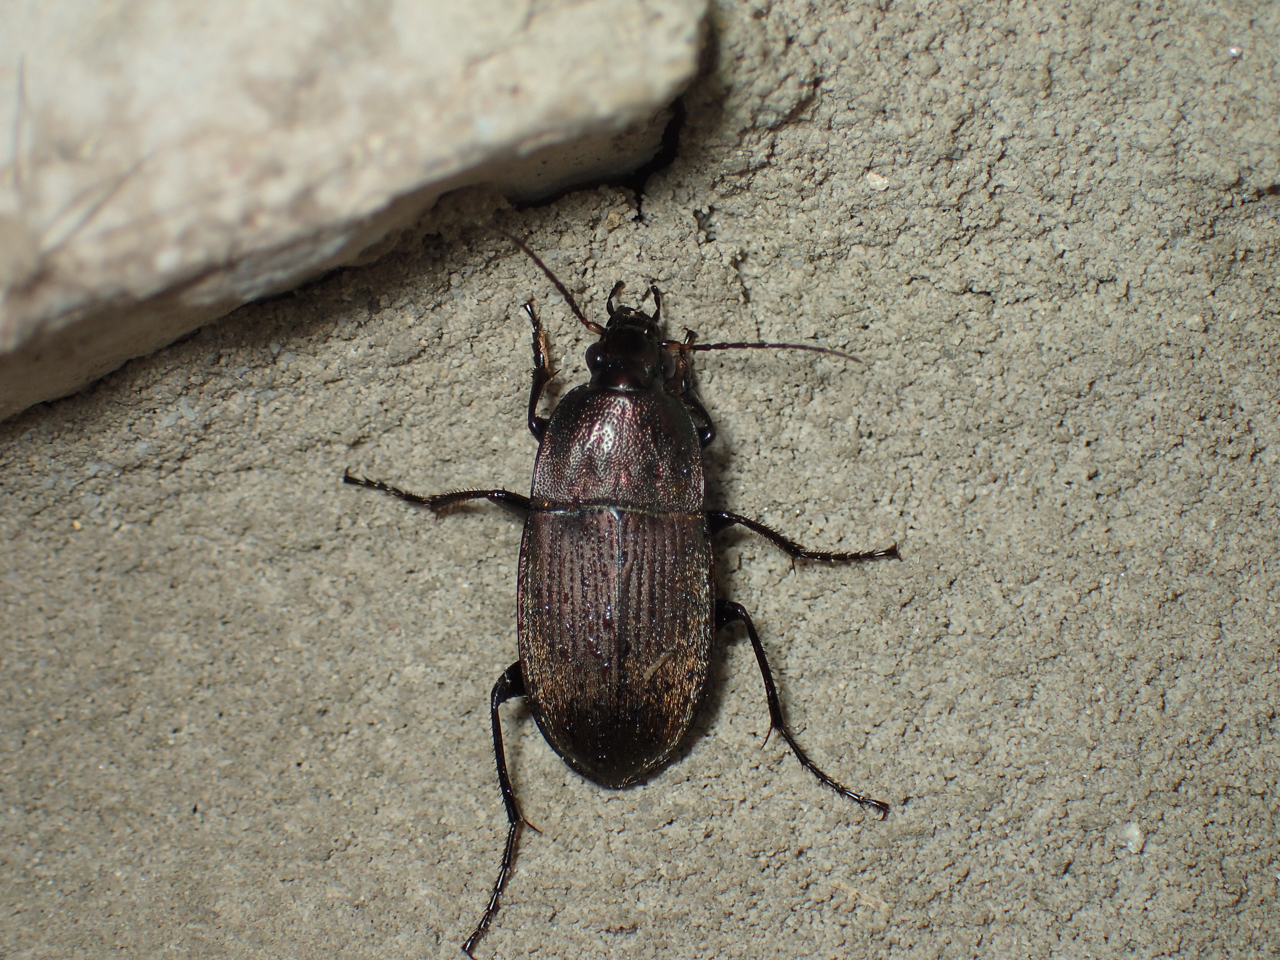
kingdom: Animalia
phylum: Arthropoda
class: Insecta
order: Coleoptera
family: Carabidae
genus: Chlaenius
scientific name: Chlaenius tomentosus
